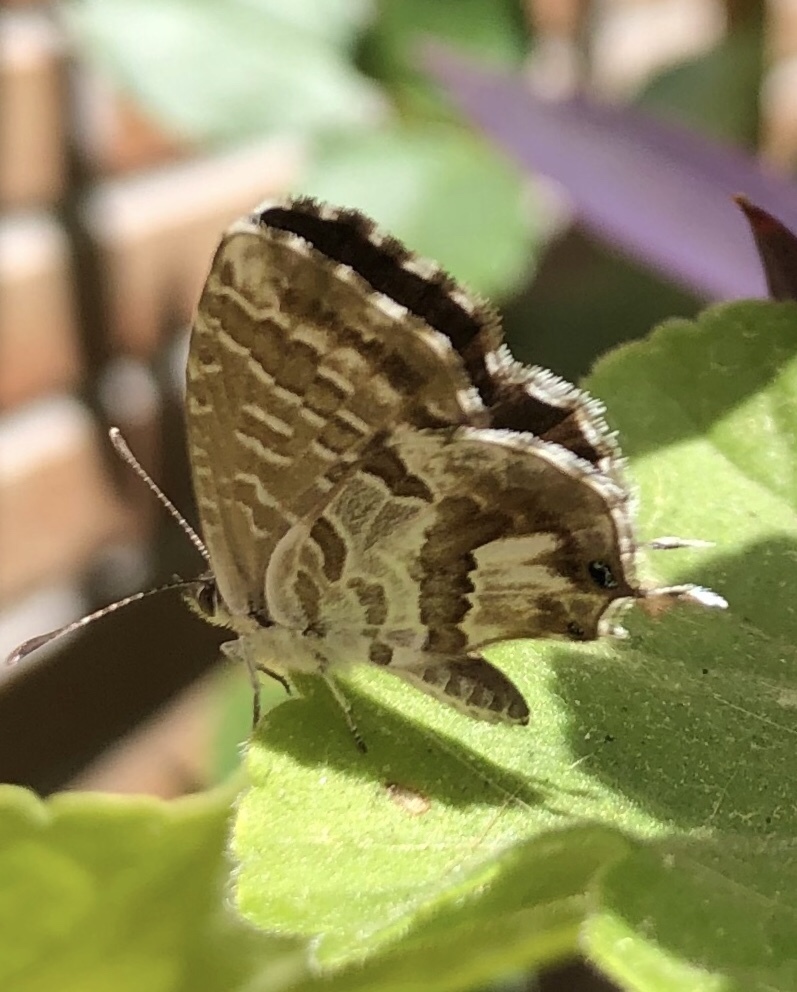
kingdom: Animalia
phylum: Arthropoda
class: Insecta
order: Lepidoptera
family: Lycaenidae
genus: Cacyreus
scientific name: Cacyreus marshalli
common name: Geranium bronze
